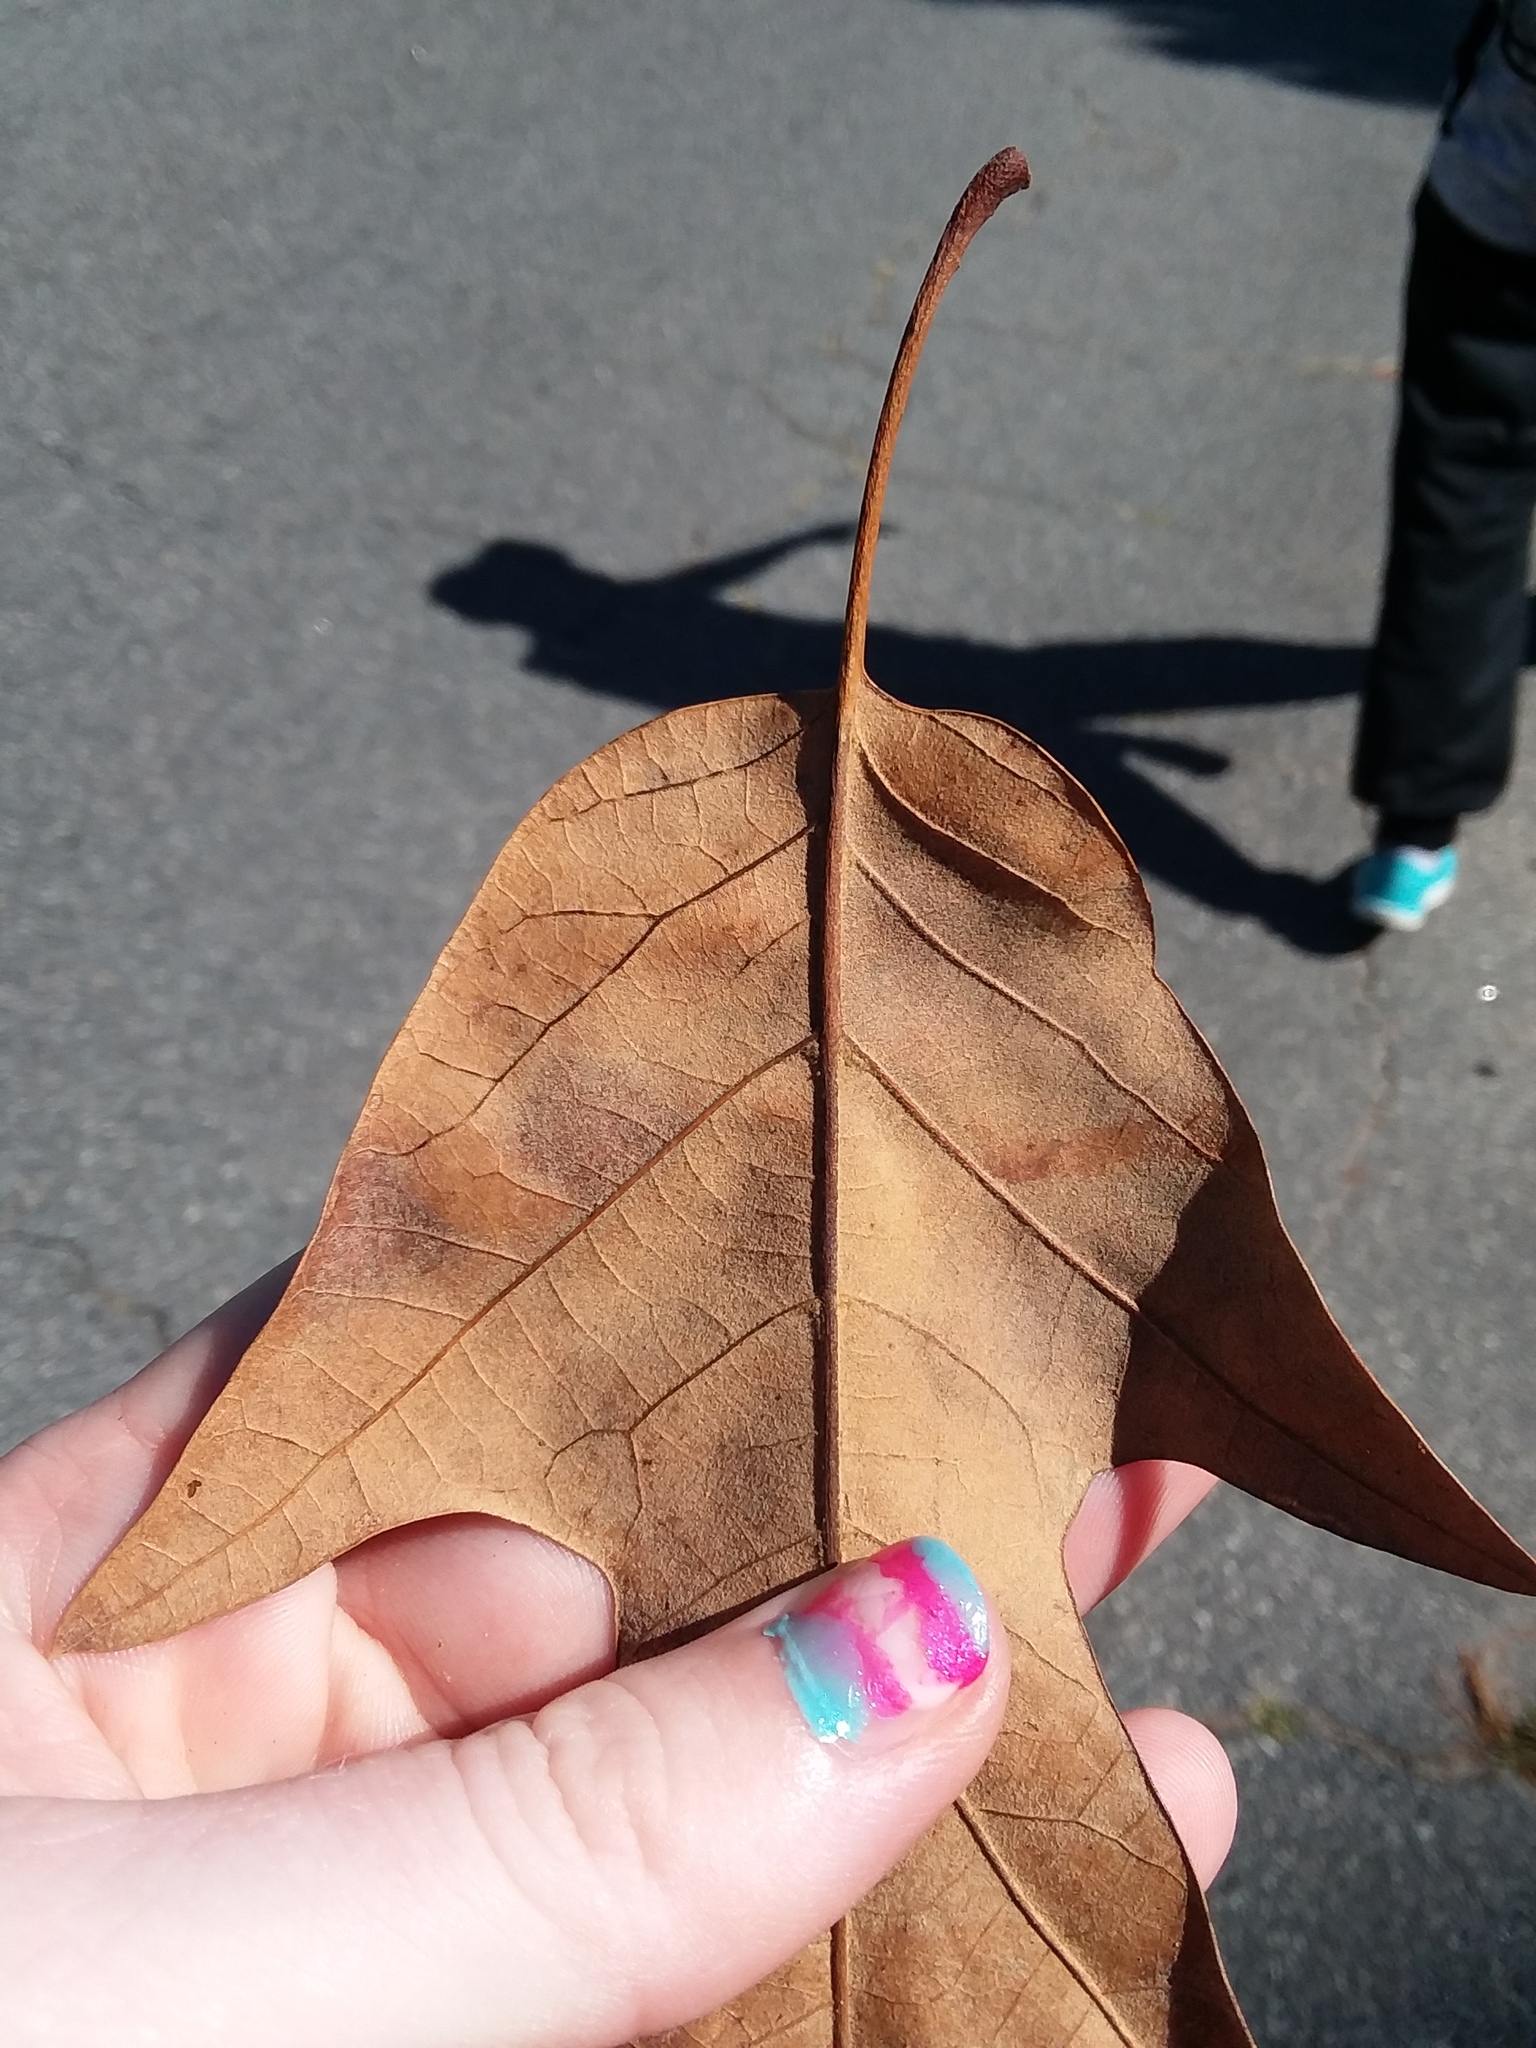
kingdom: Plantae
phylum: Tracheophyta
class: Magnoliopsida
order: Fagales
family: Fagaceae
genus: Quercus
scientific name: Quercus falcata
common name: Southern red oak
